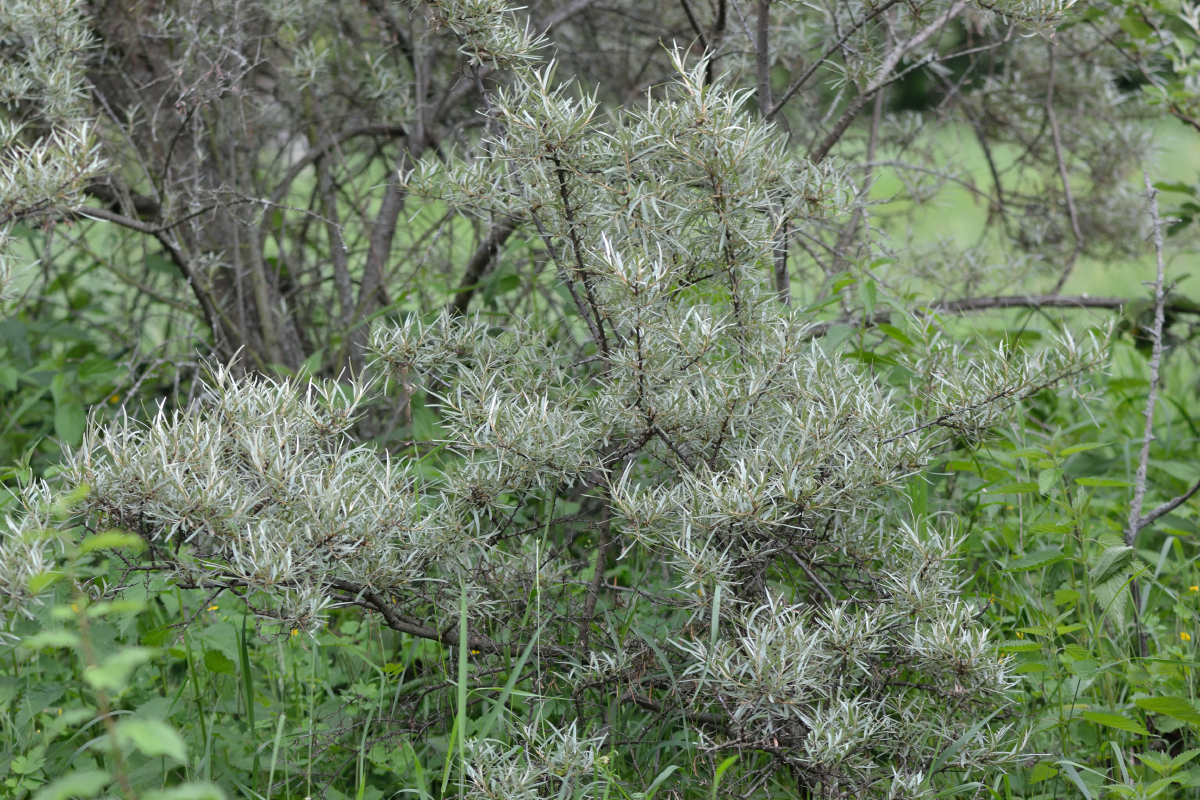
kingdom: Plantae
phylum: Tracheophyta
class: Magnoliopsida
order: Rosales
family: Elaeagnaceae
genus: Hippophae
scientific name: Hippophae rhamnoides
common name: Sea-buckthorn
